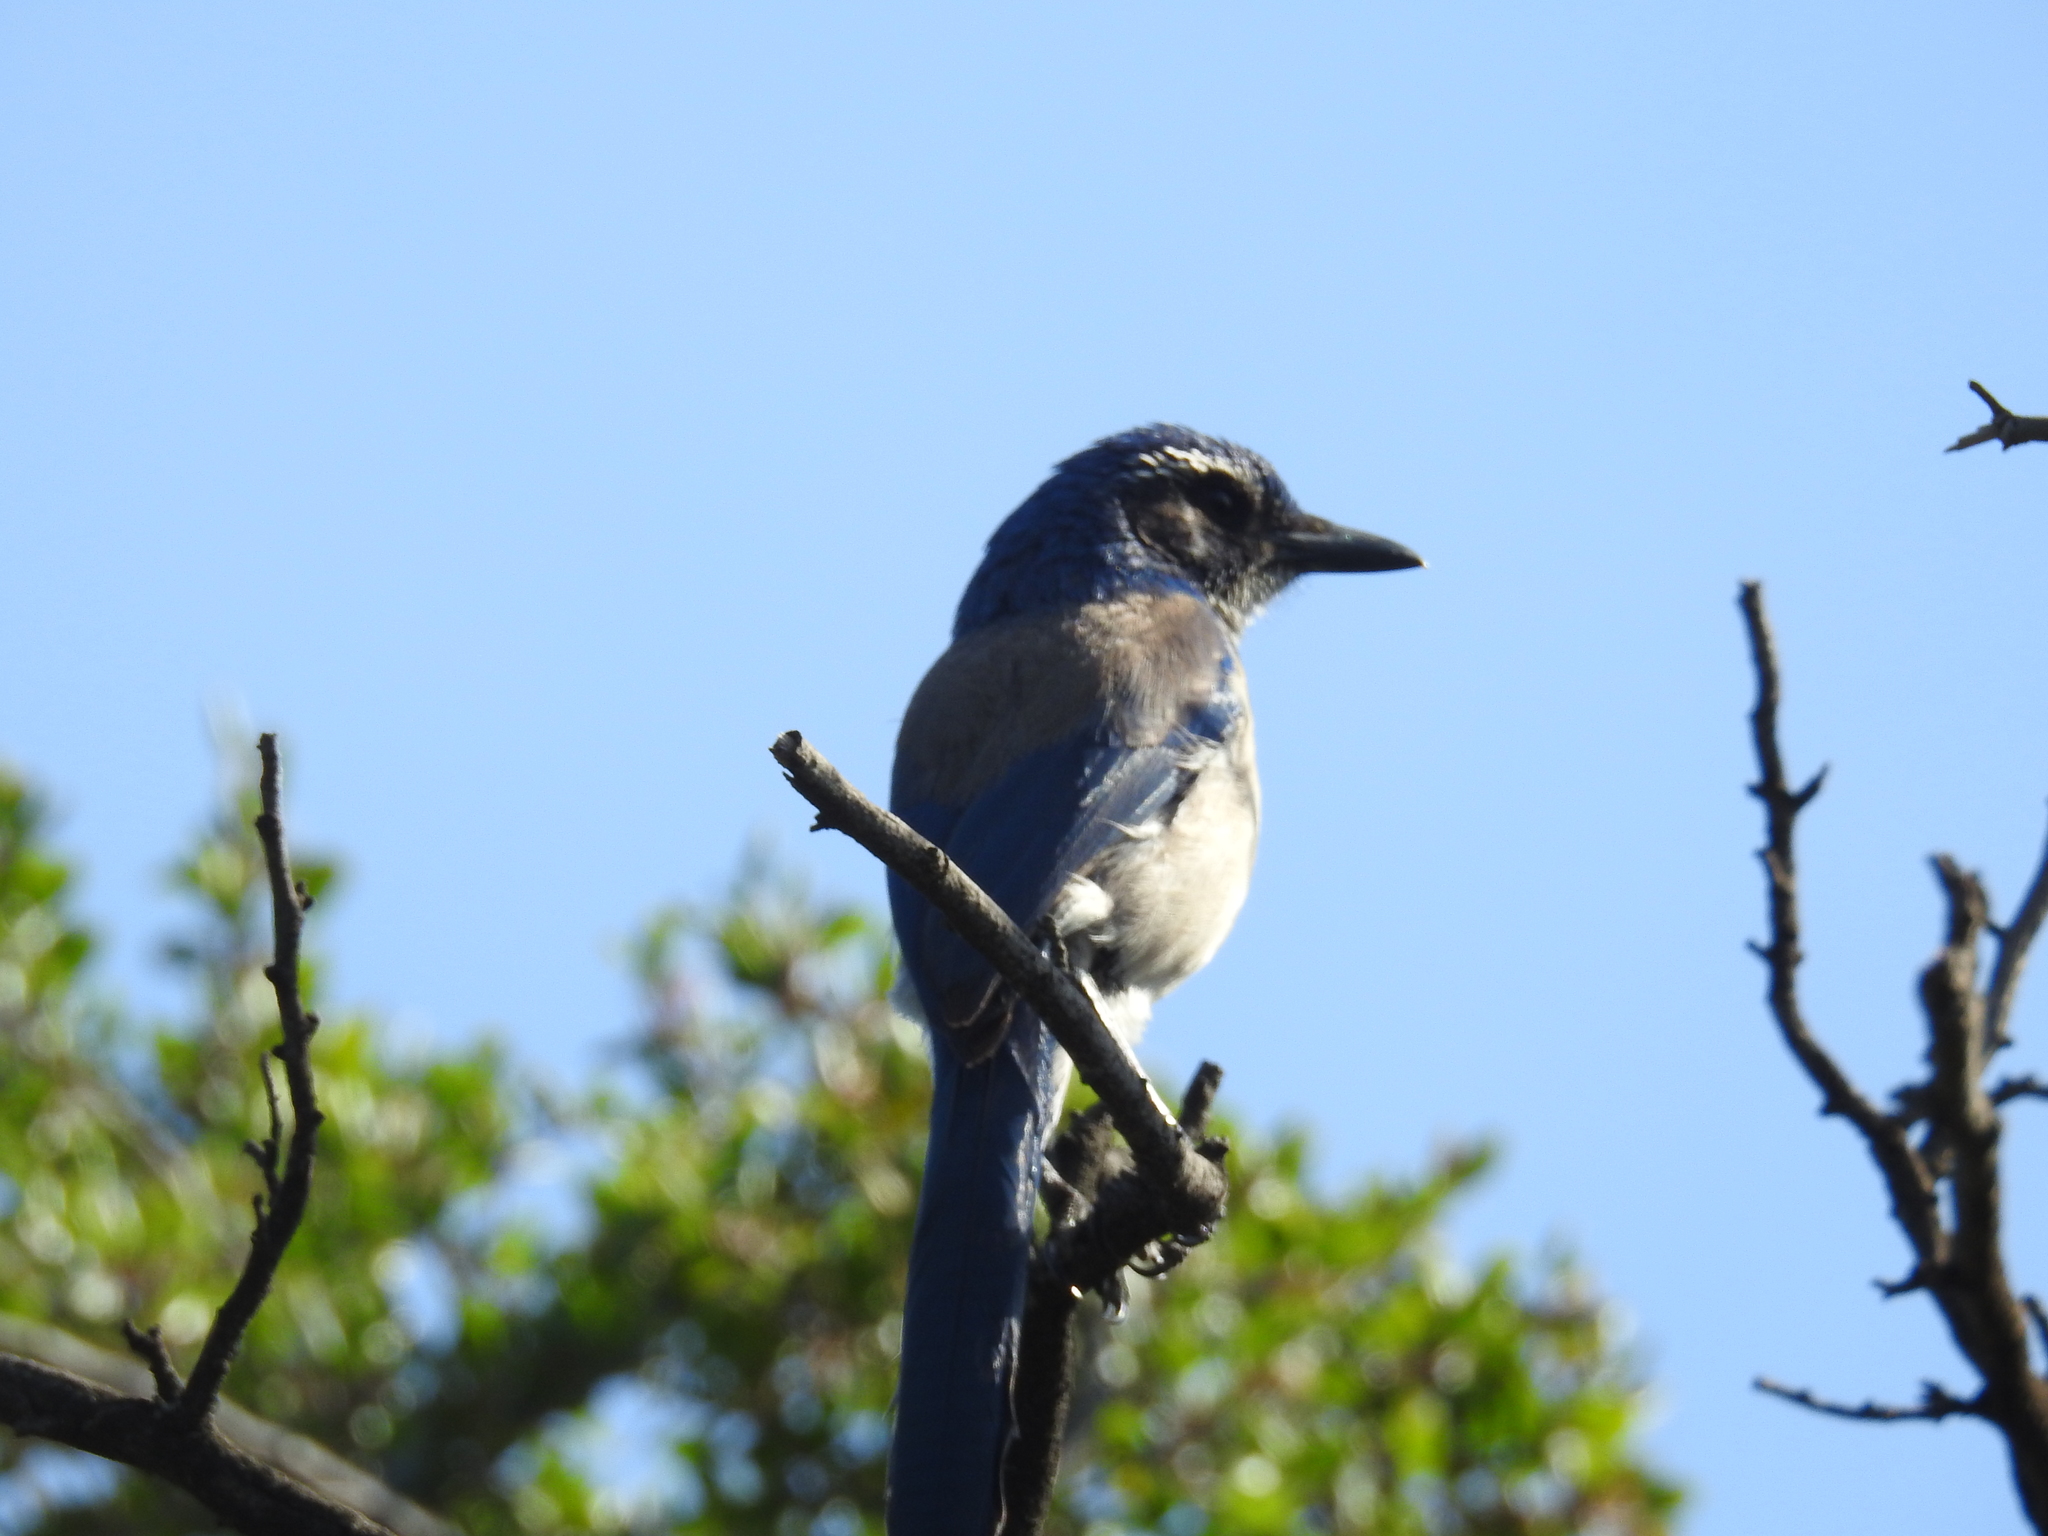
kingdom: Animalia
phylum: Chordata
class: Aves
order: Passeriformes
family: Corvidae
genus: Aphelocoma
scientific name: Aphelocoma californica
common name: California scrub-jay
